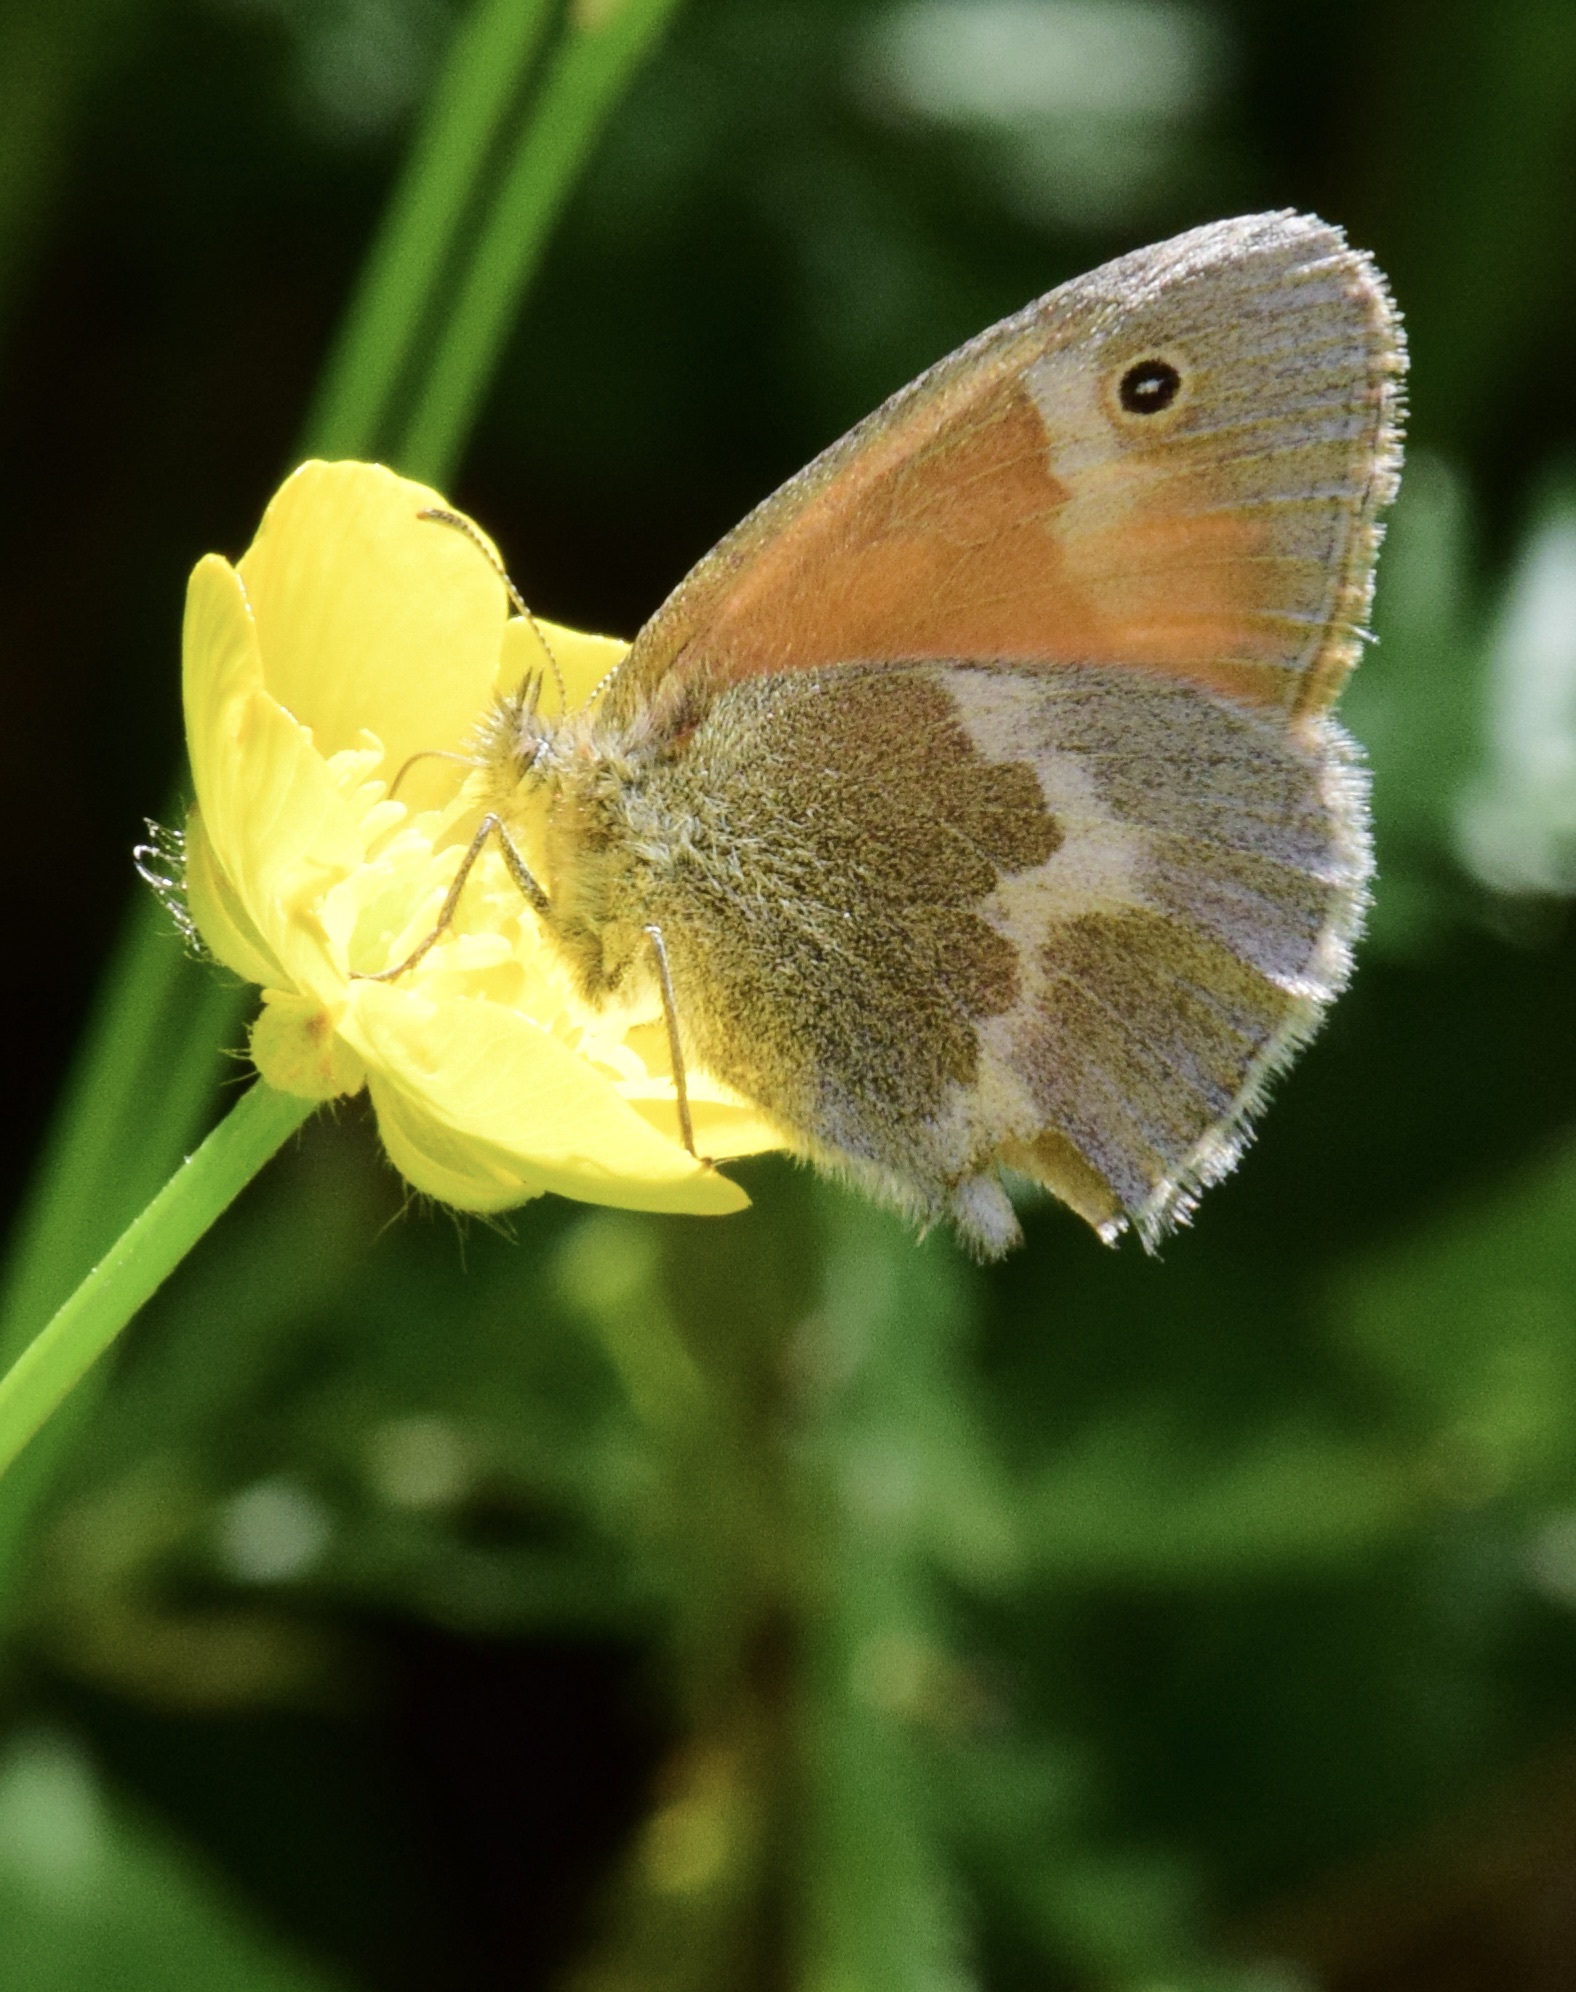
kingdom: Animalia
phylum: Arthropoda
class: Insecta
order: Lepidoptera
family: Nymphalidae
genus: Coenonympha
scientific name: Coenonympha california
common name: Common ringlet
